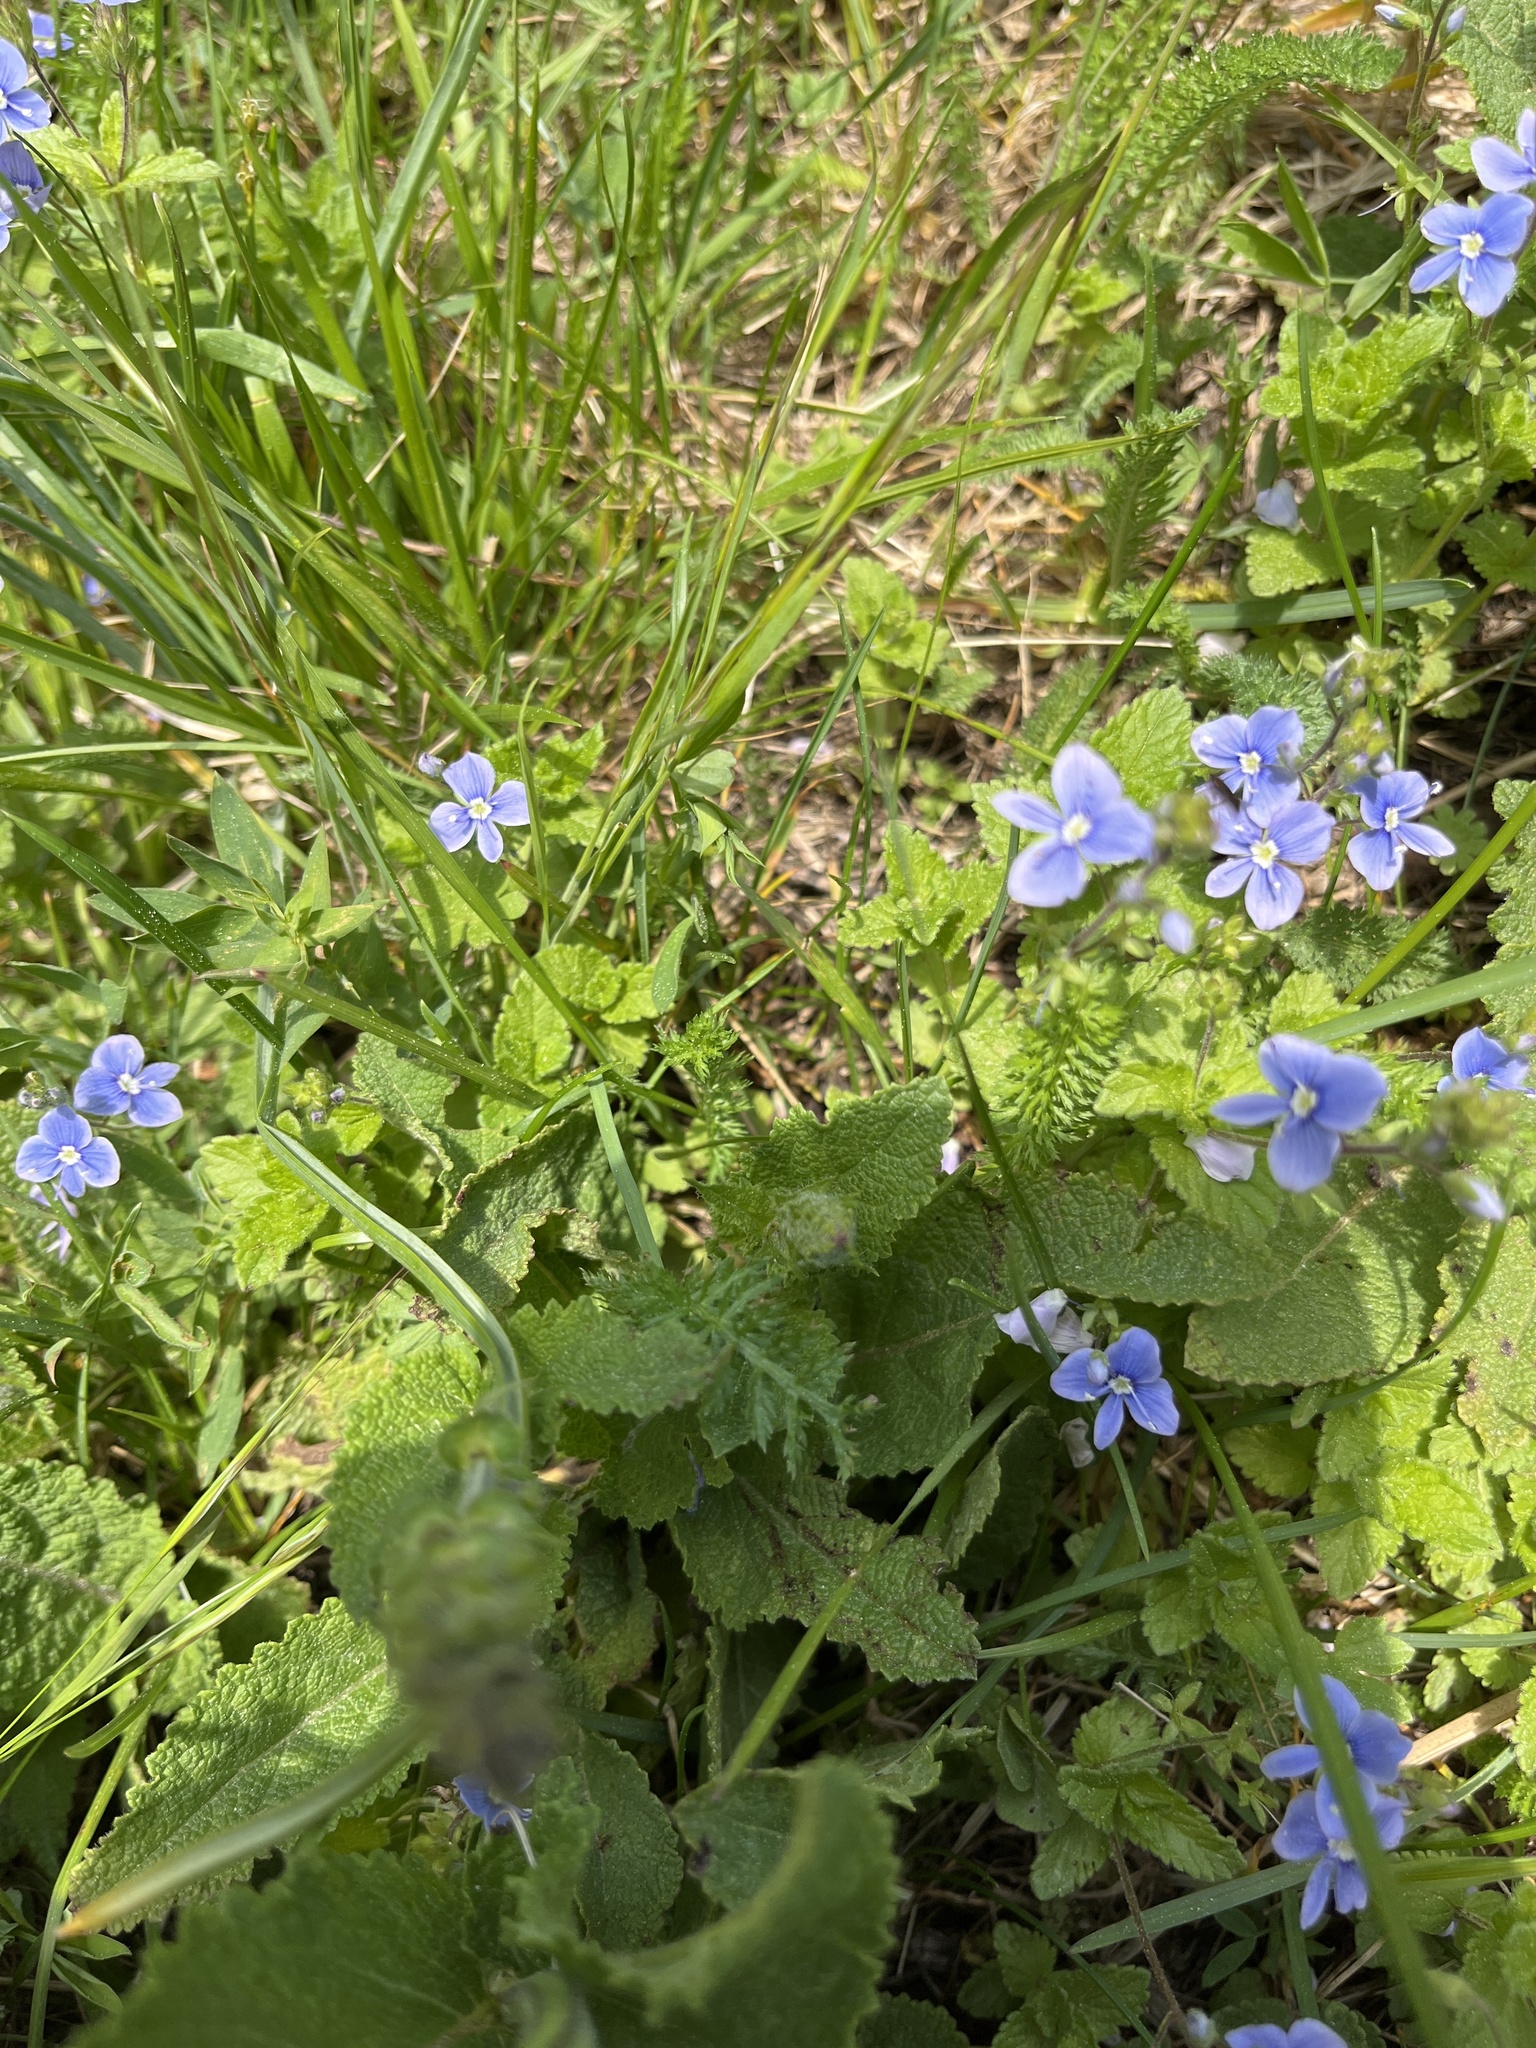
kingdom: Plantae
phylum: Tracheophyta
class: Magnoliopsida
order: Lamiales
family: Plantaginaceae
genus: Veronica
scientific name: Veronica chamaedrys
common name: Germander speedwell
